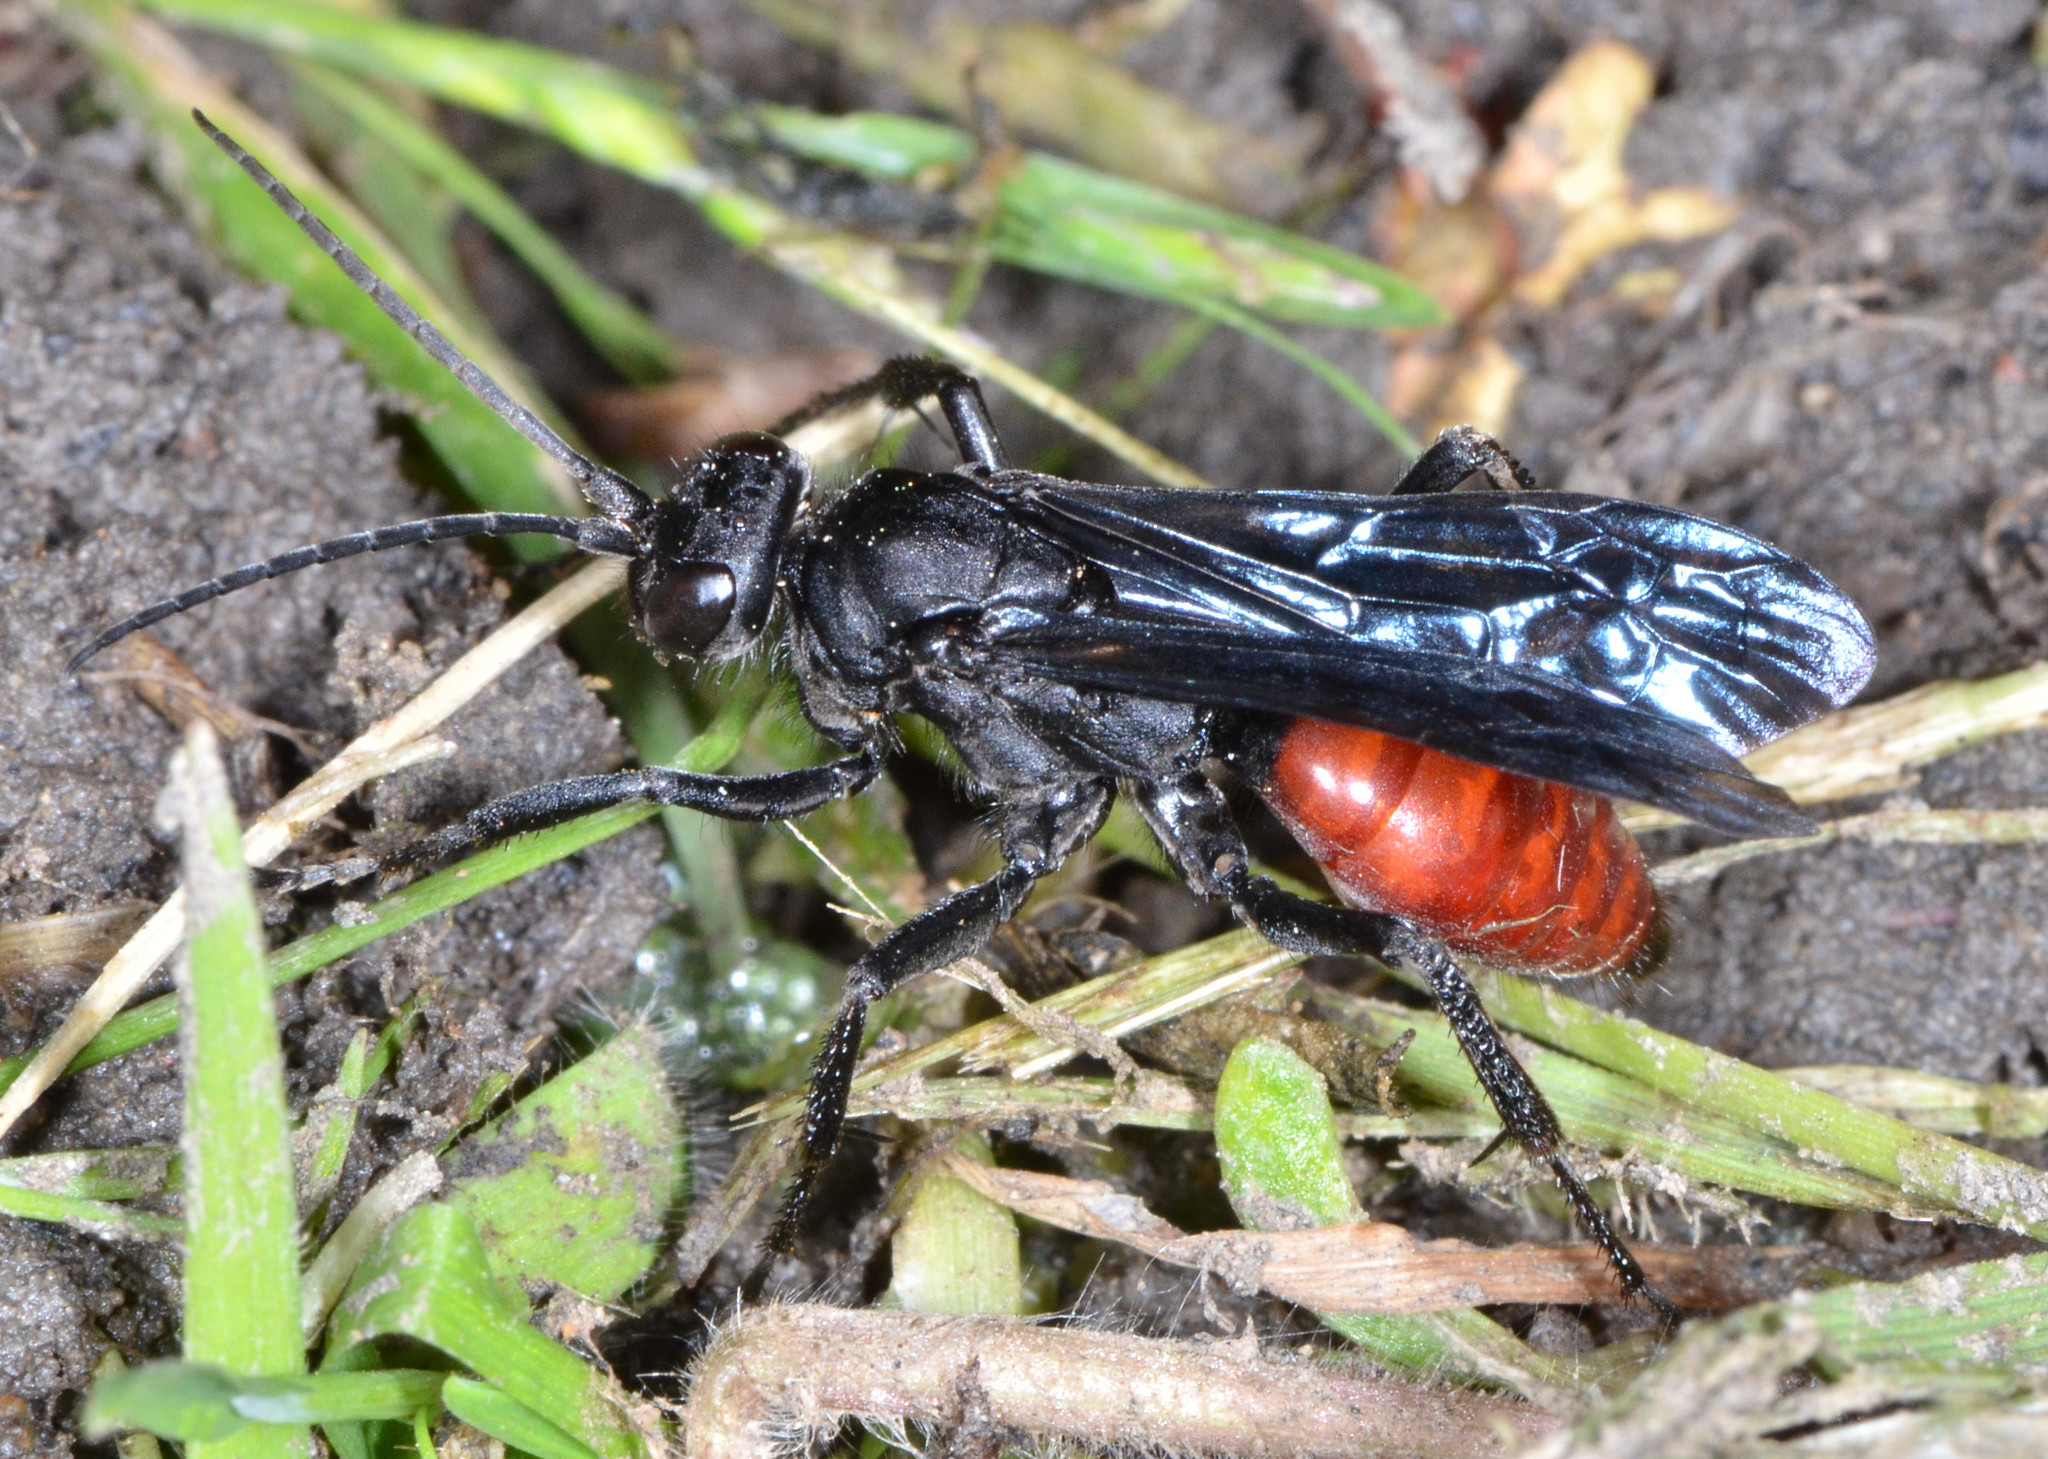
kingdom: Animalia
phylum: Arthropoda
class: Insecta
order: Hymenoptera
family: Pompilidae
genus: Priocnemis
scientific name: Priocnemis oregona
